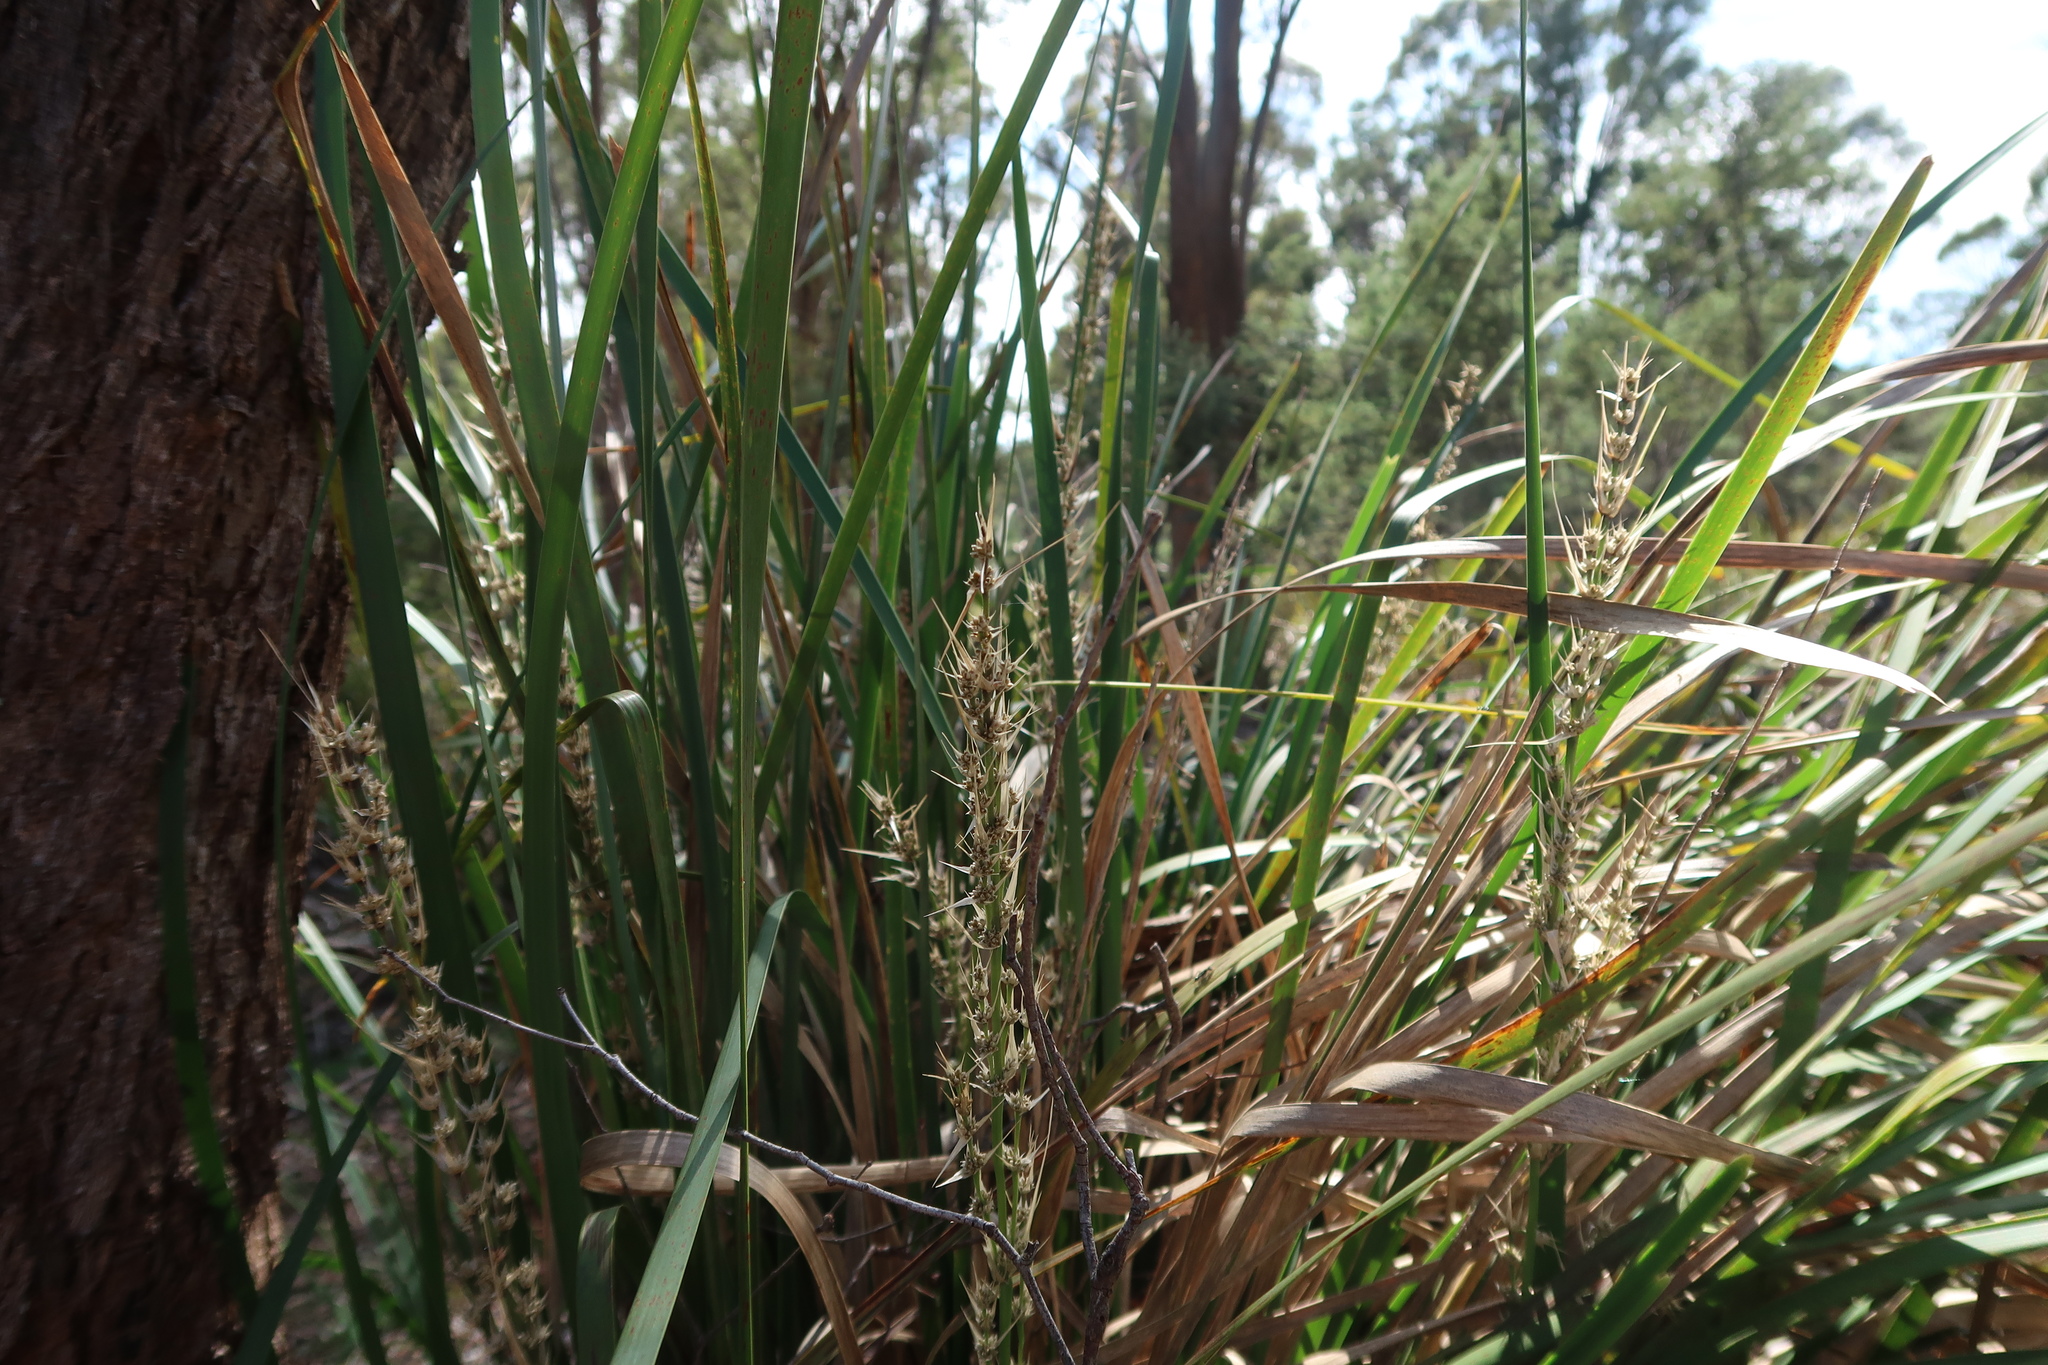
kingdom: Plantae
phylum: Tracheophyta
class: Liliopsida
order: Asparagales
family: Asparagaceae
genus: Lomandra
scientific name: Lomandra longifolia
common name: Longleaf mat-rush
